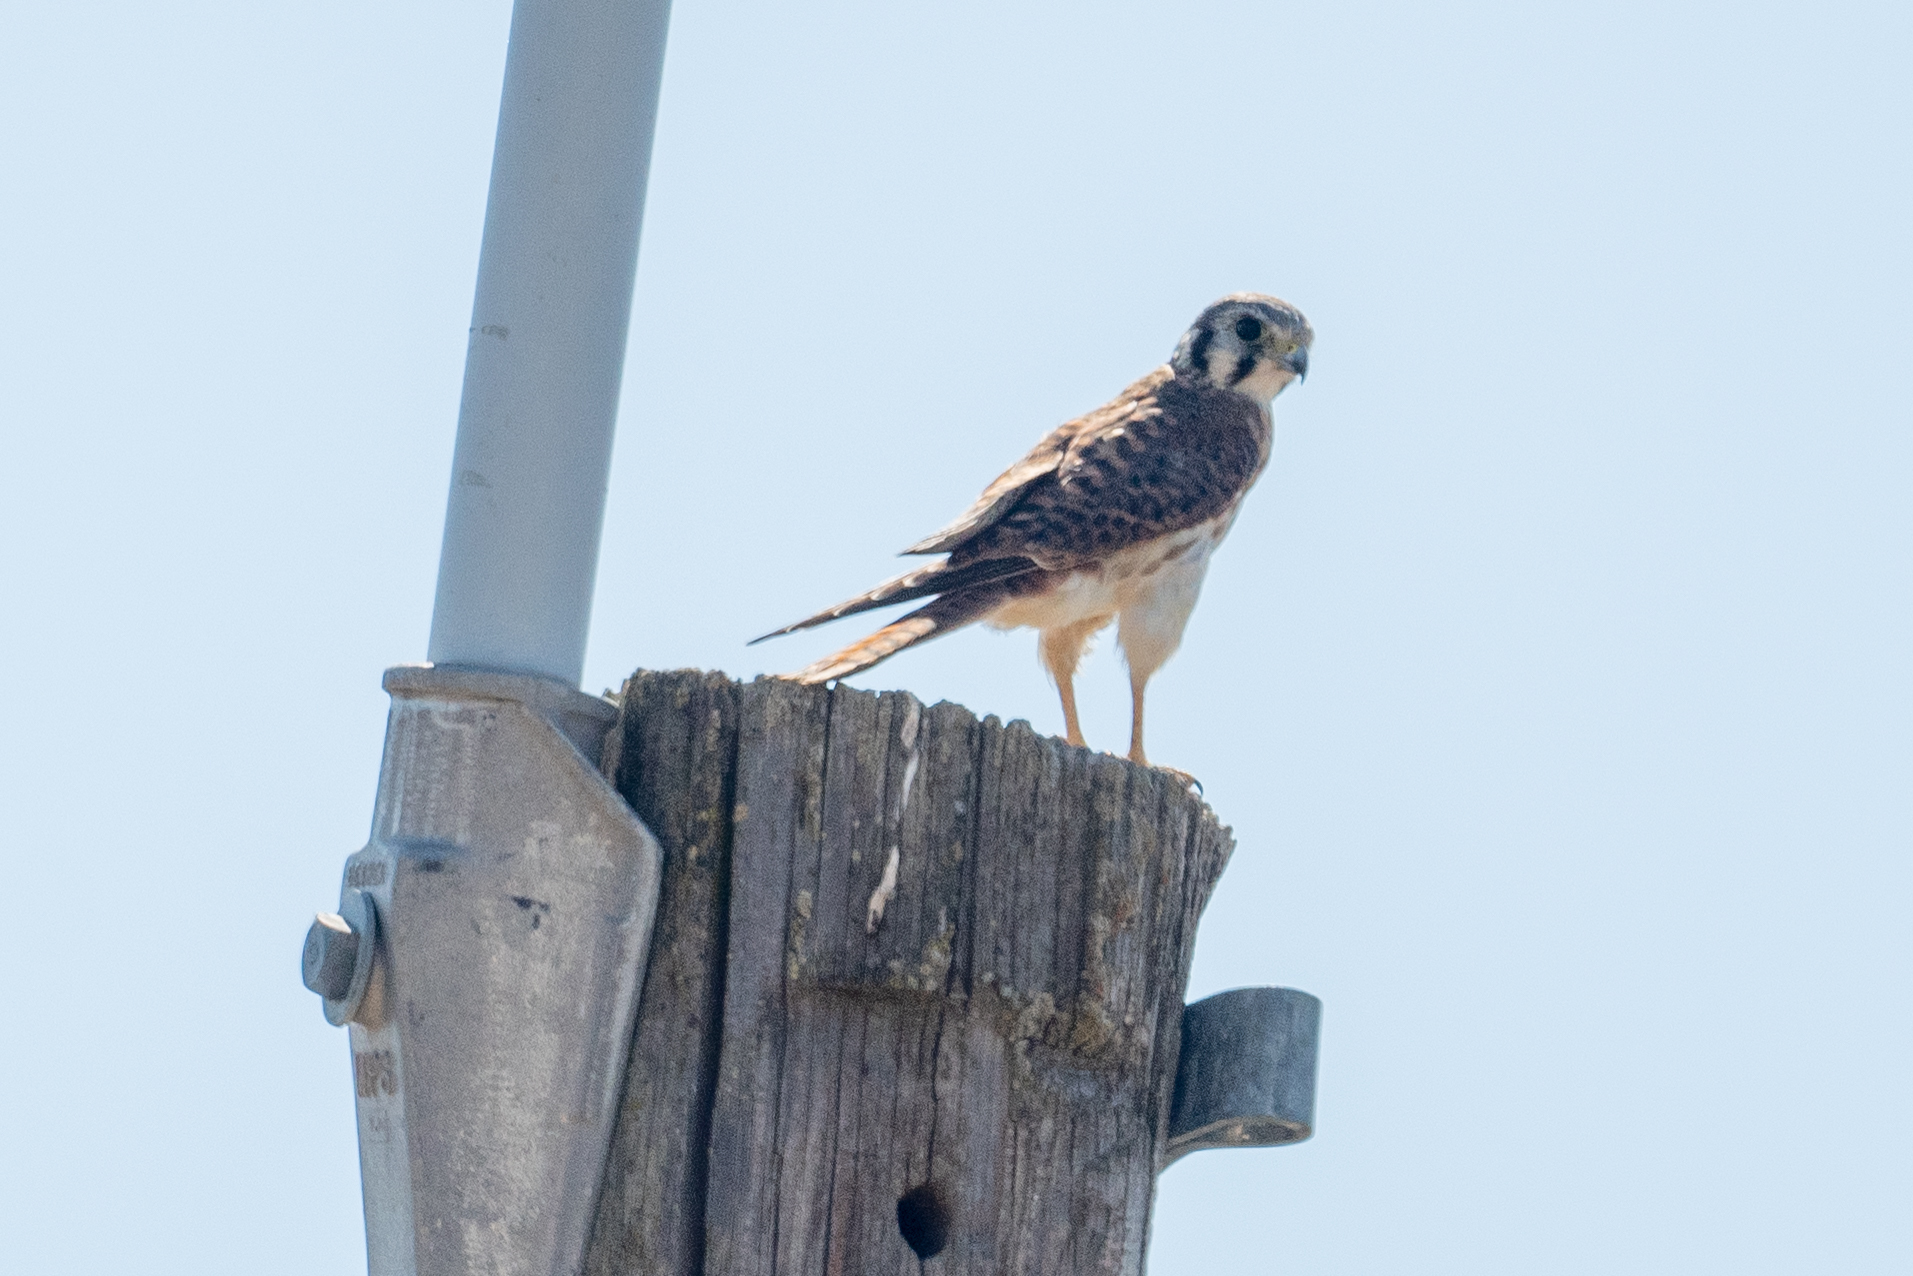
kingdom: Animalia
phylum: Chordata
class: Aves
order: Falconiformes
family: Falconidae
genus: Falco
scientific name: Falco sparverius
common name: American kestrel
